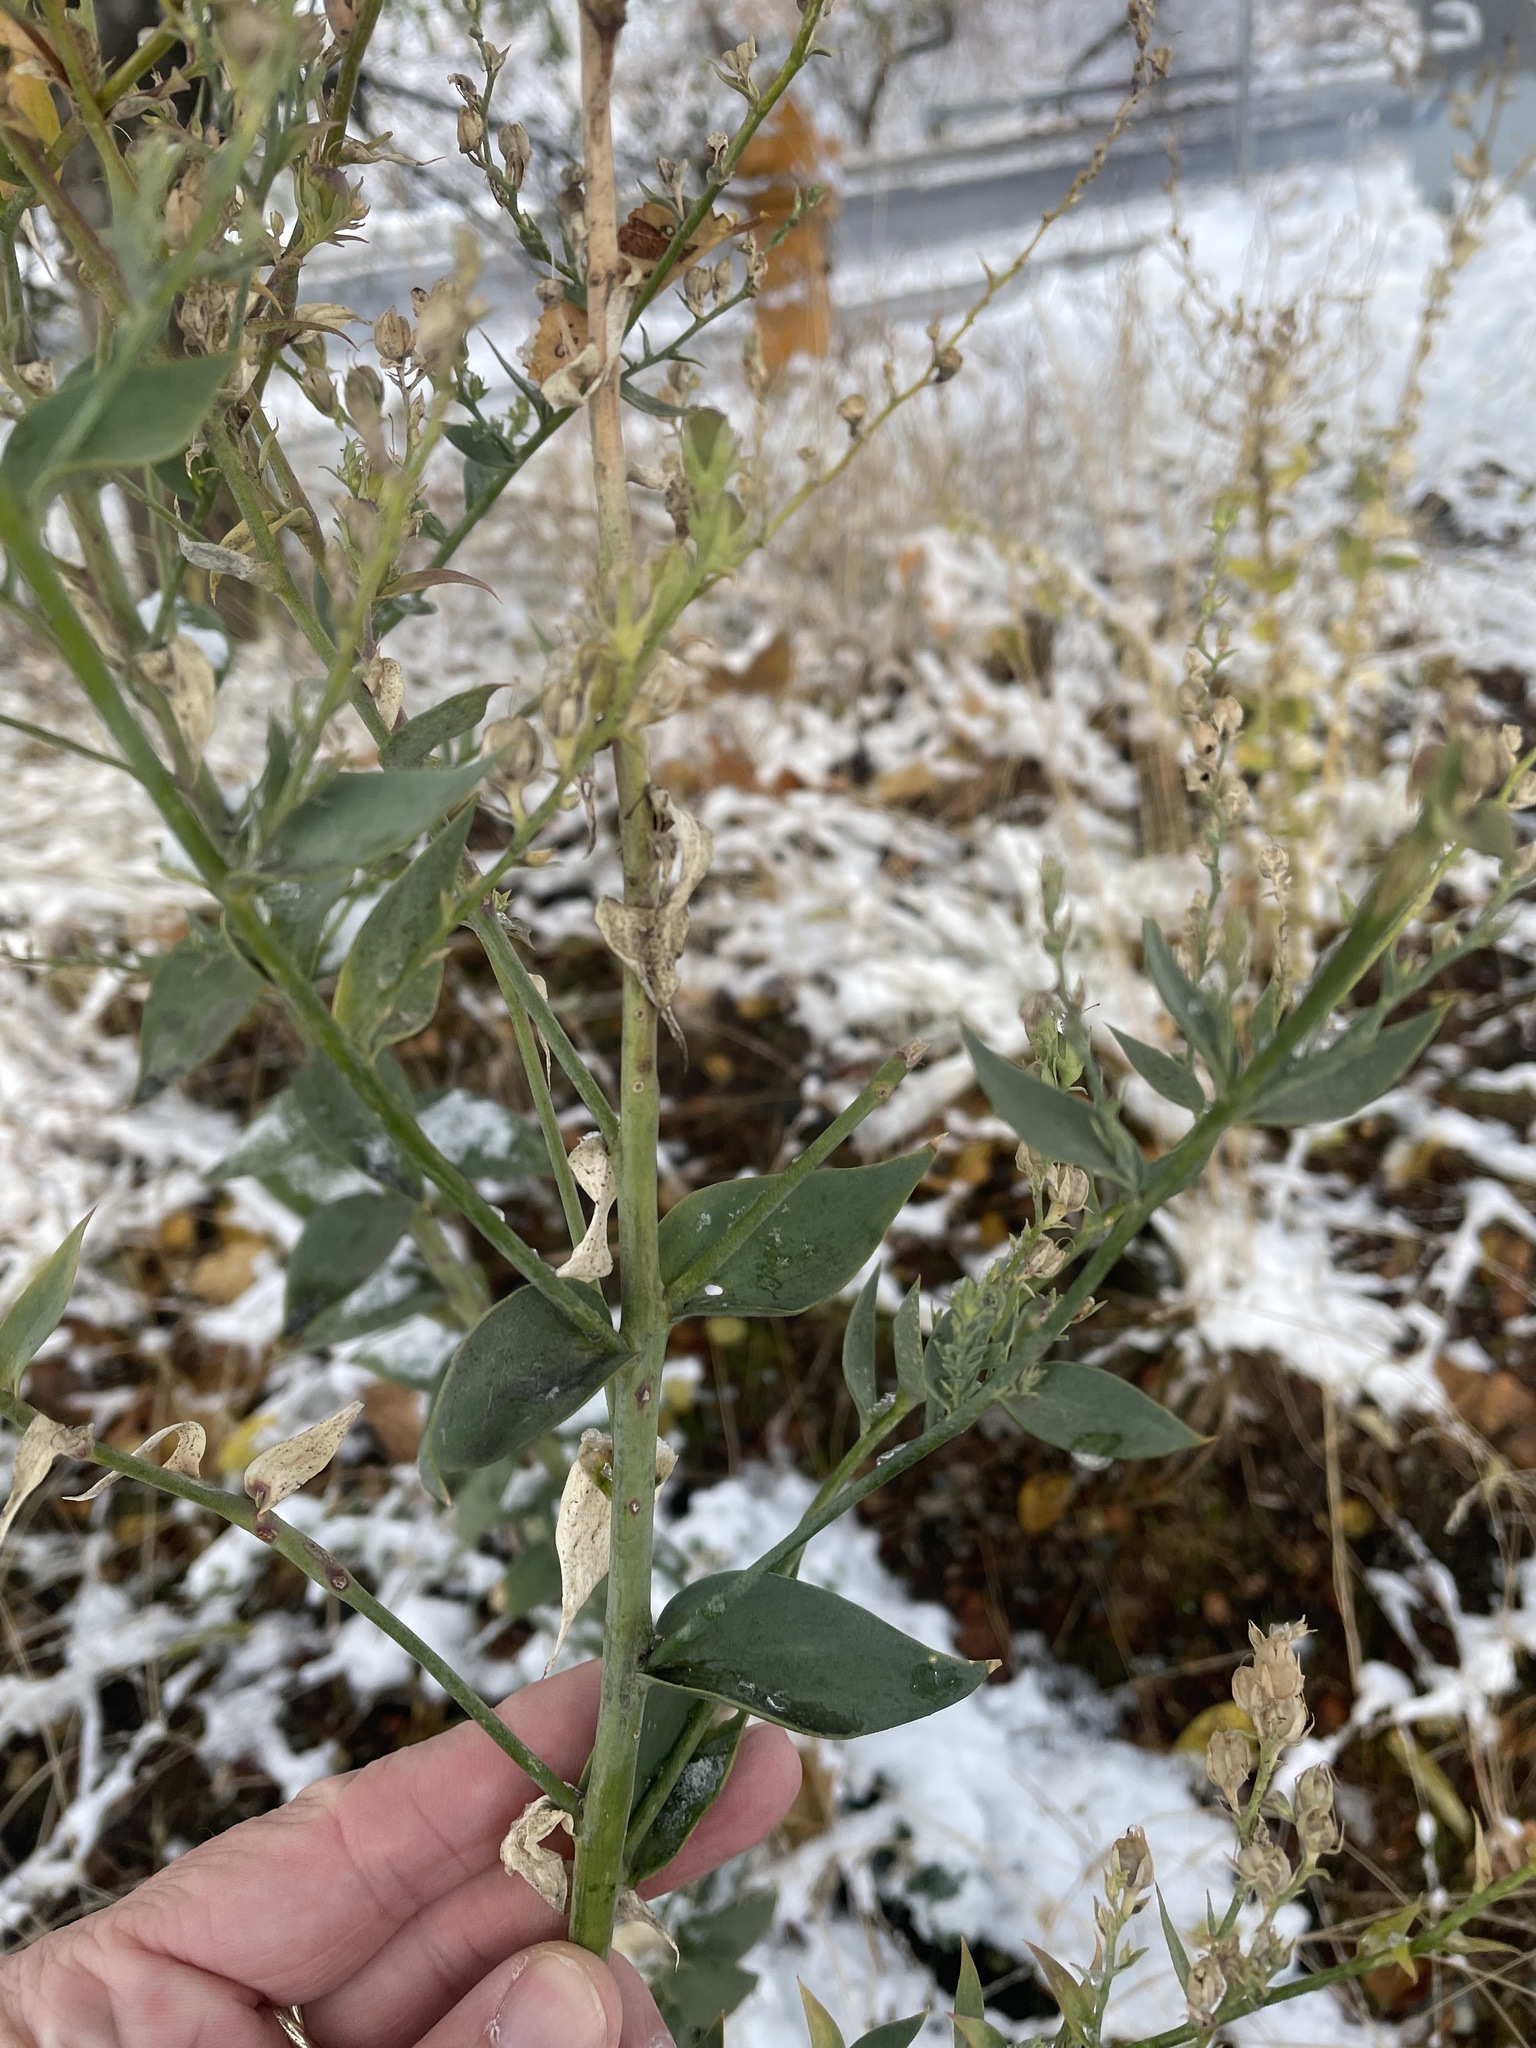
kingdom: Plantae
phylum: Tracheophyta
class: Magnoliopsida
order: Lamiales
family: Plantaginaceae
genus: Linaria
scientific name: Linaria dalmatica
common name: Dalmatian toadflax
